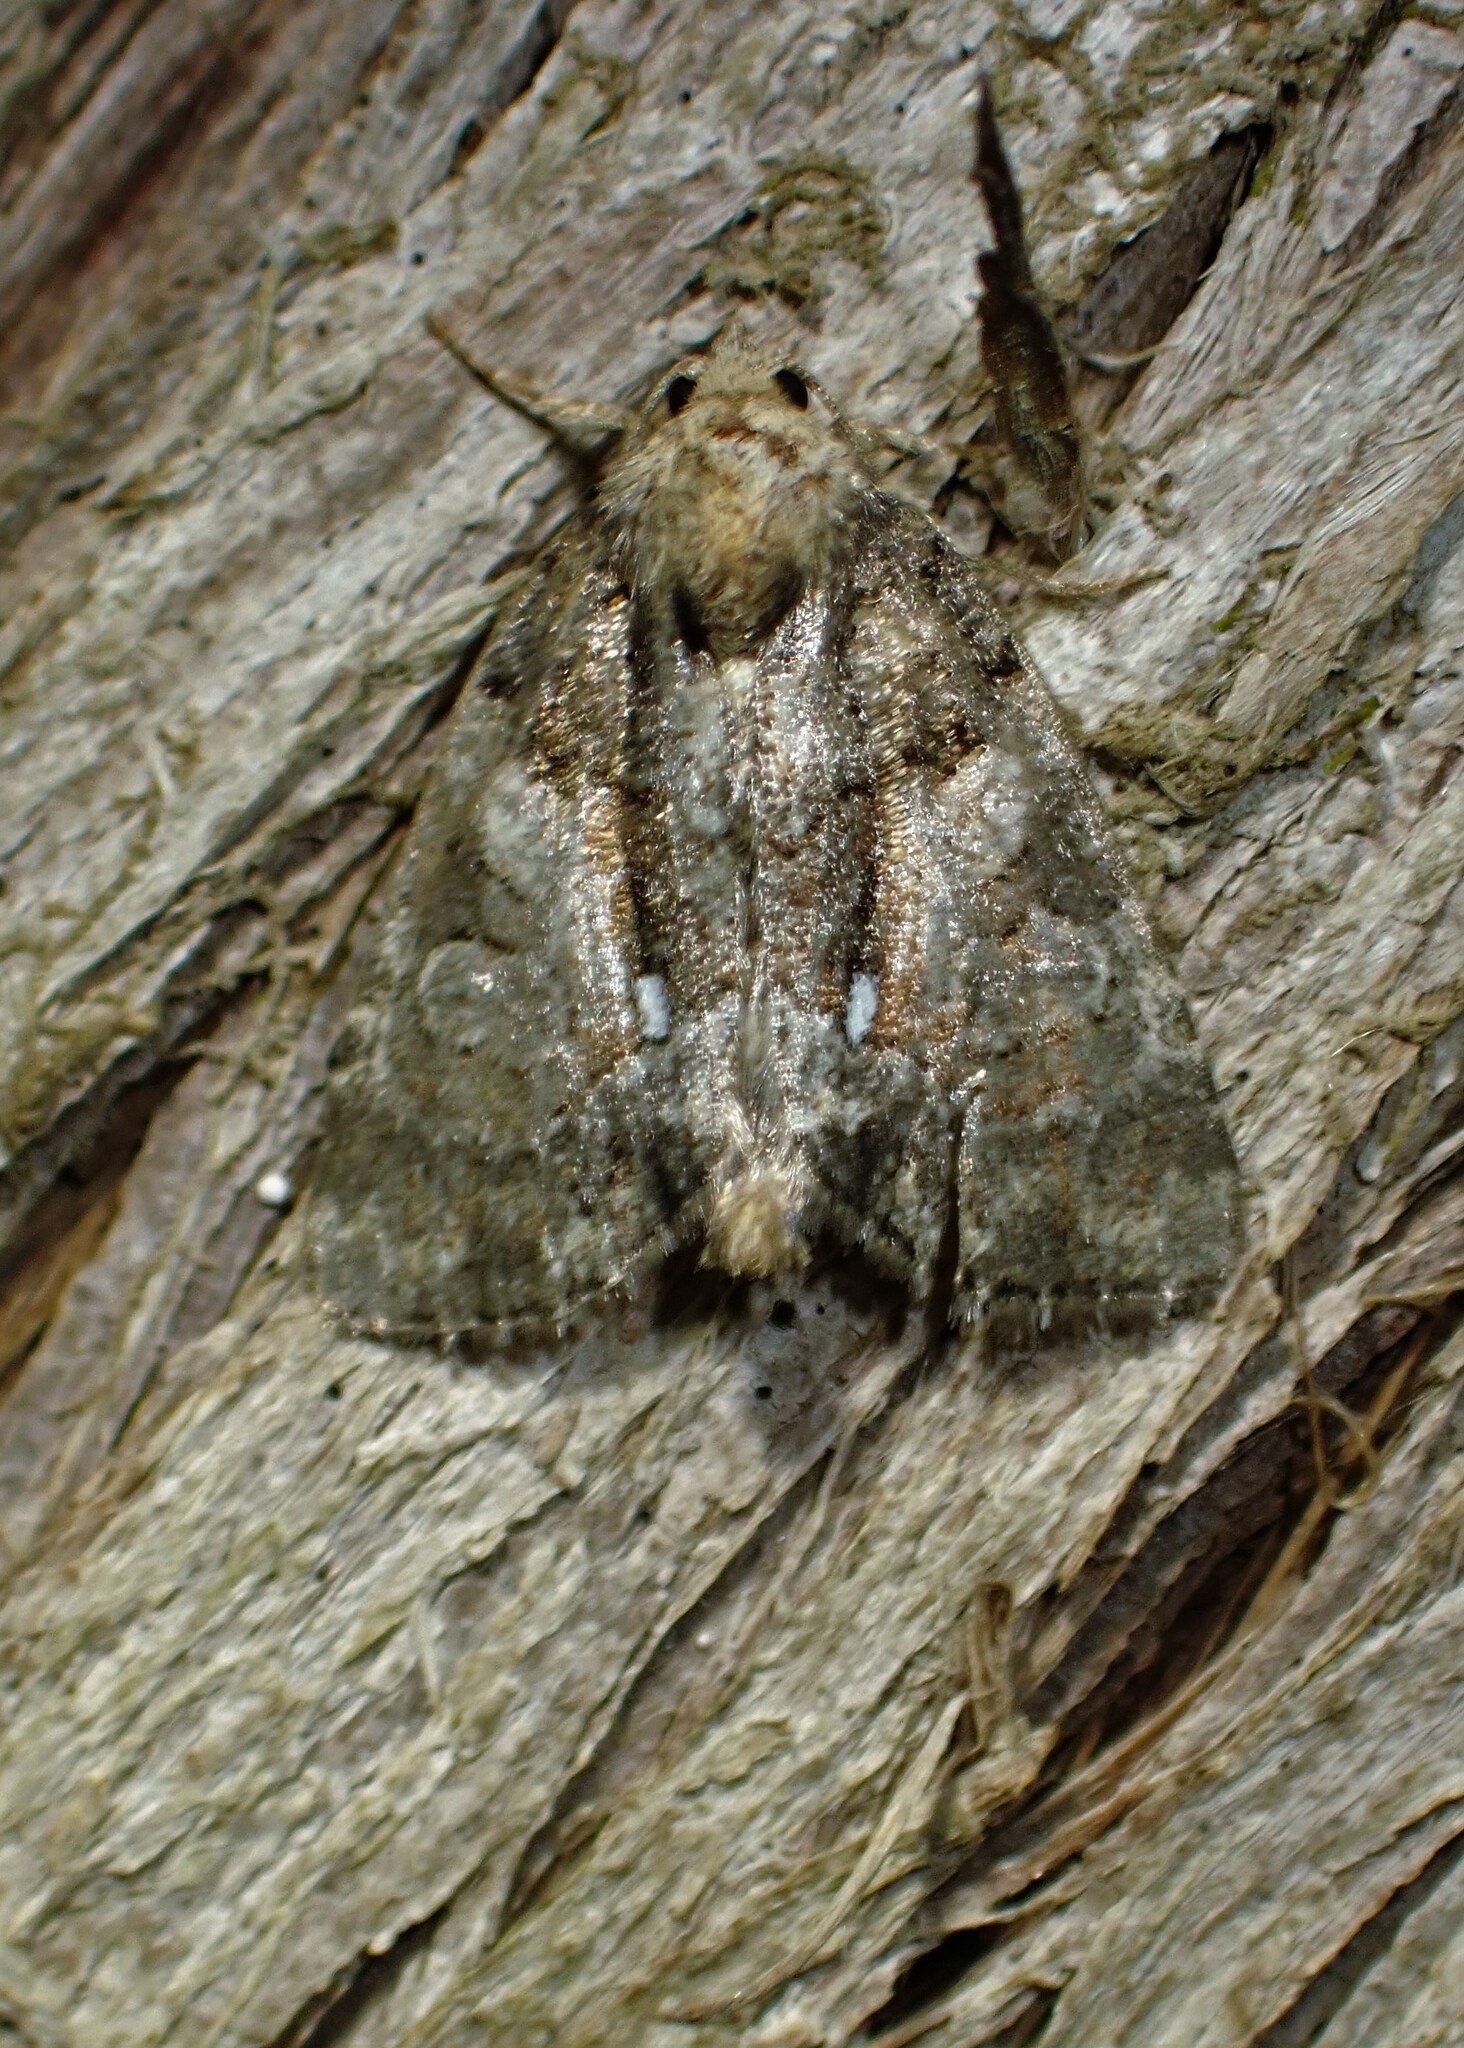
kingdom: Animalia
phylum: Arthropoda
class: Insecta
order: Lepidoptera
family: Noctuidae
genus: Chytonix
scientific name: Chytonix palliatricula
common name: Cloaked marvel
